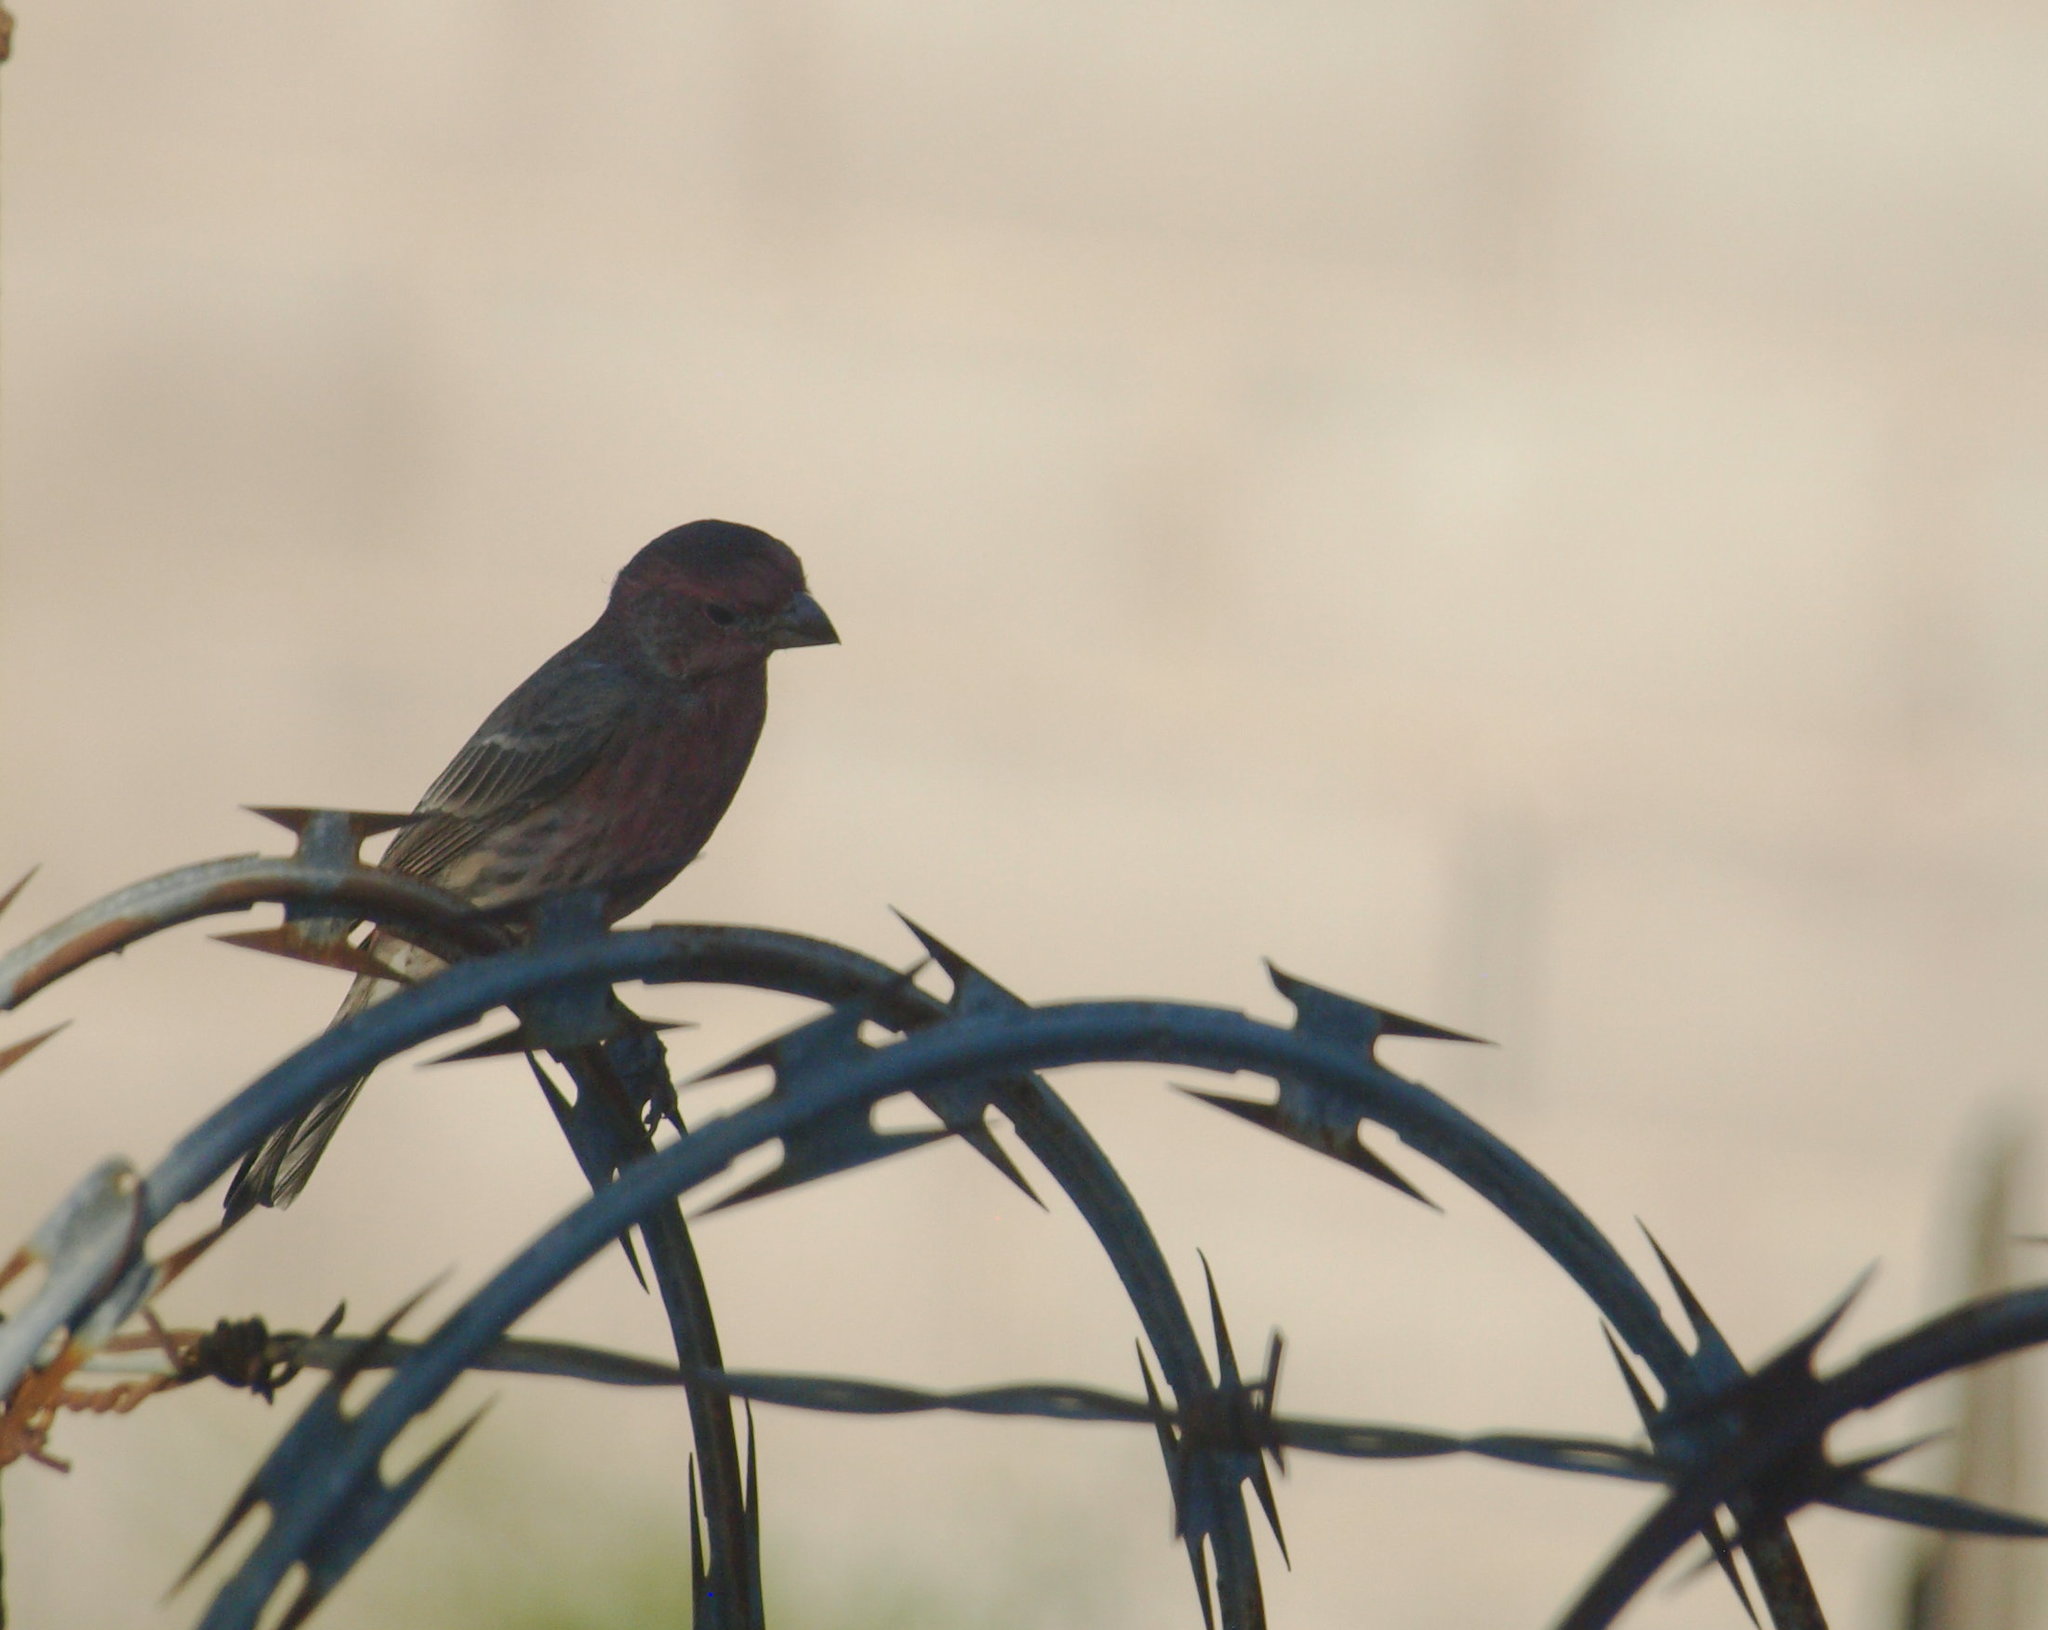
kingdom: Animalia
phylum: Chordata
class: Aves
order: Passeriformes
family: Fringillidae
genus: Haemorhous
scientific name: Haemorhous mexicanus
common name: House finch
